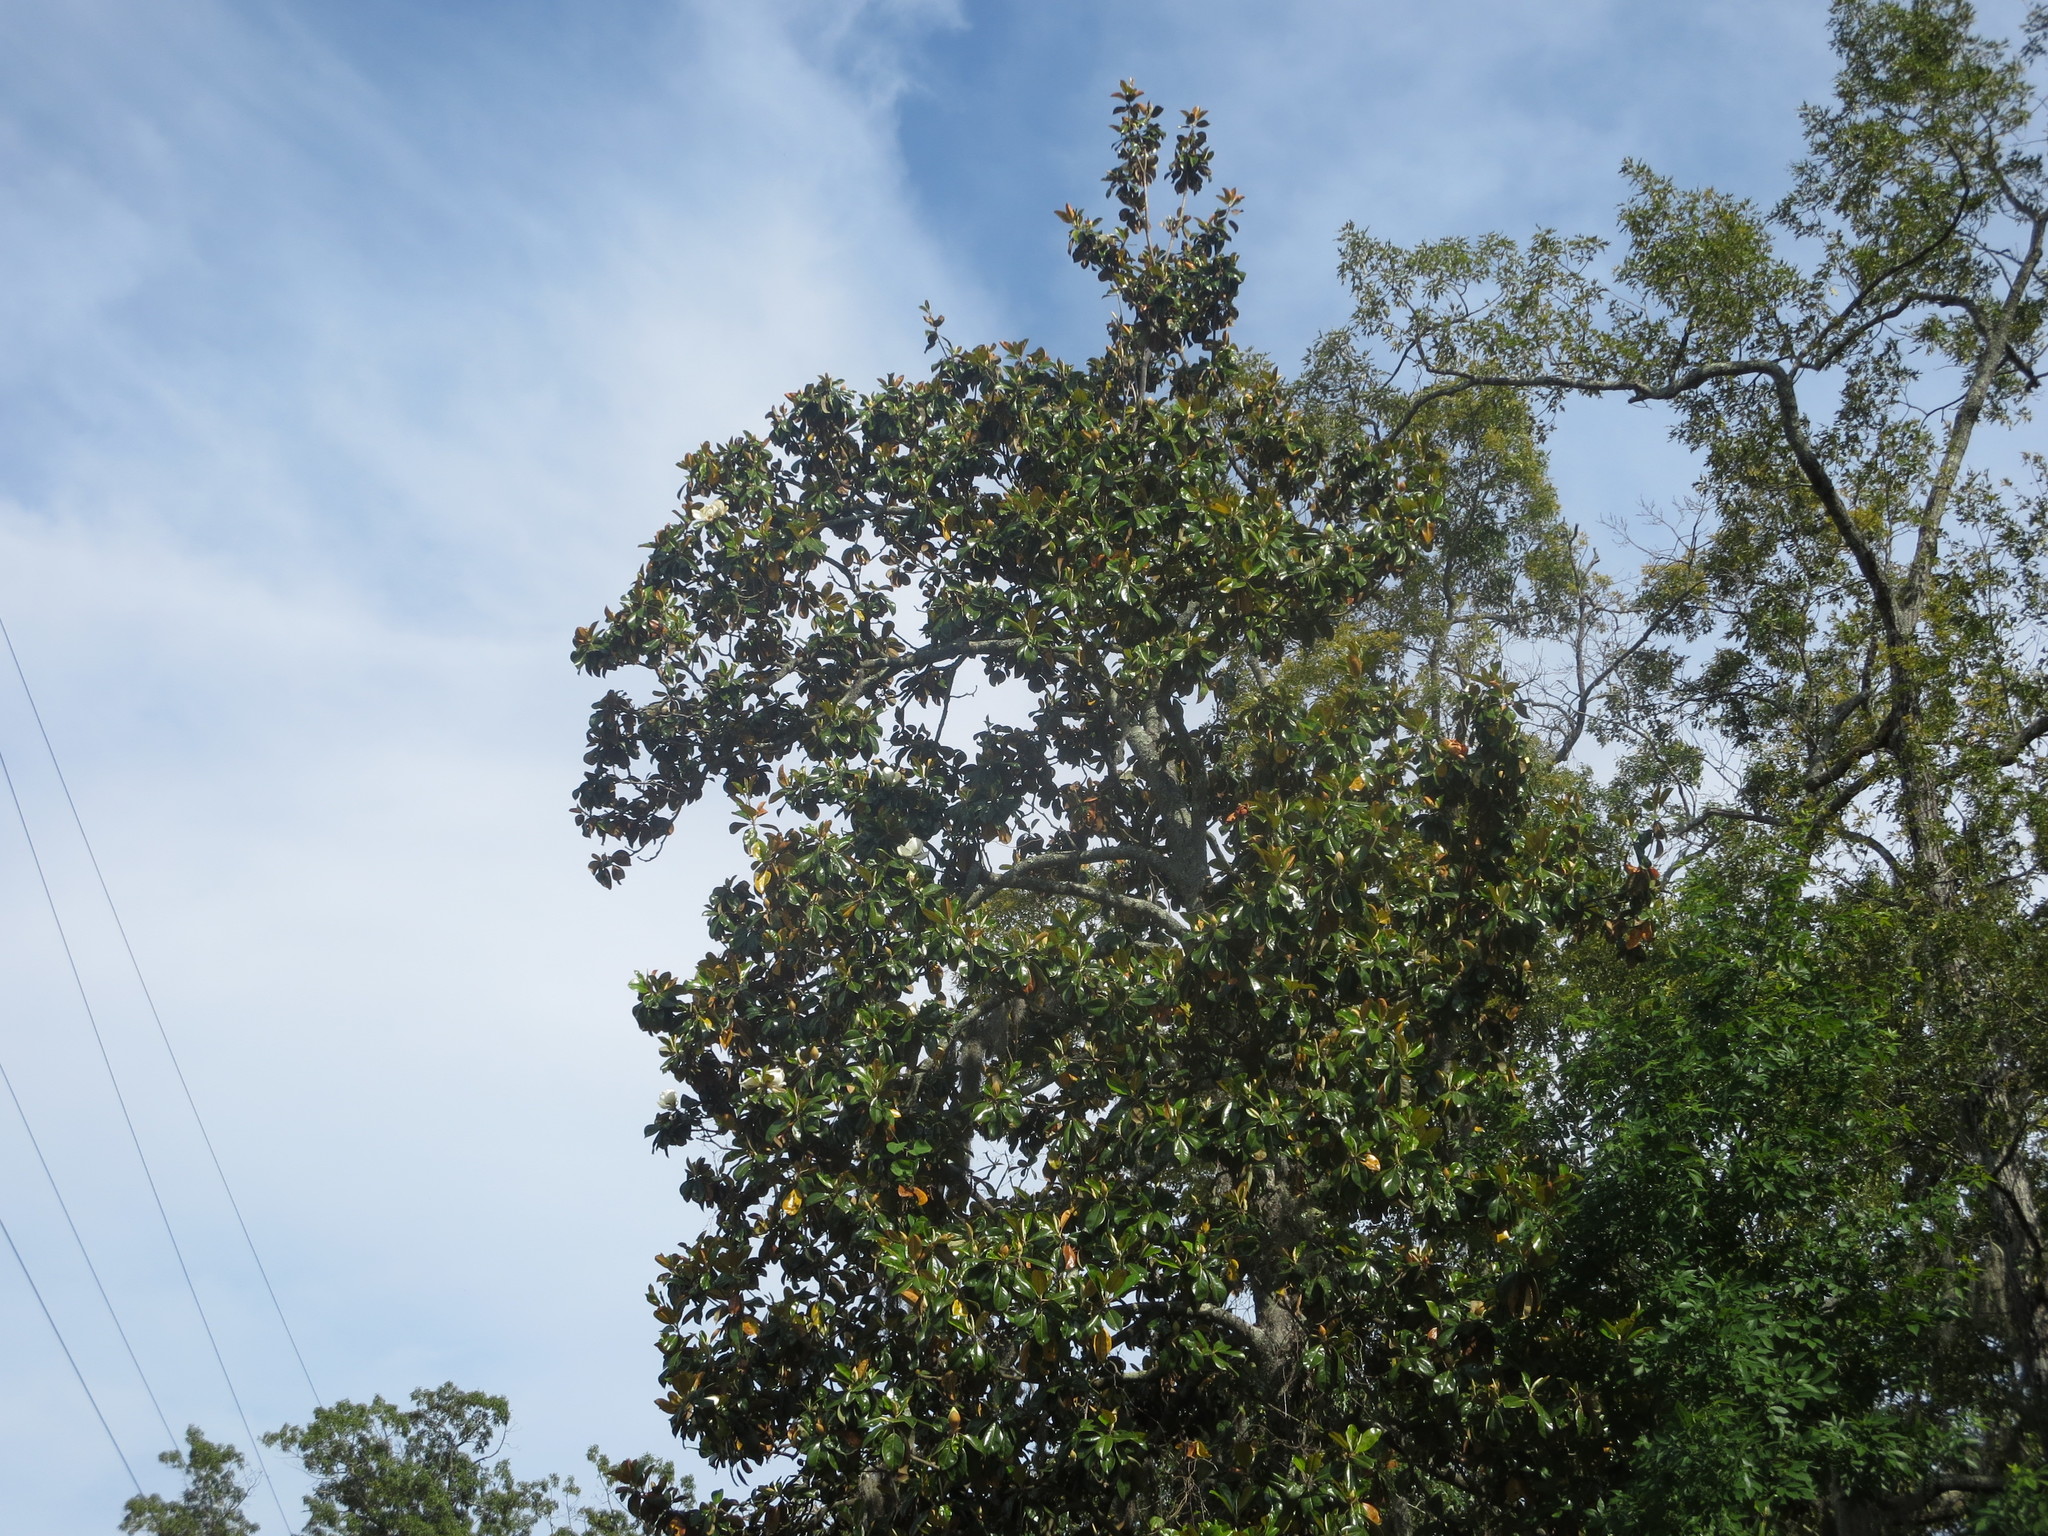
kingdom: Plantae
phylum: Tracheophyta
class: Magnoliopsida
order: Magnoliales
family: Magnoliaceae
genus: Magnolia
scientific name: Magnolia grandiflora
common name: Southern magnolia
